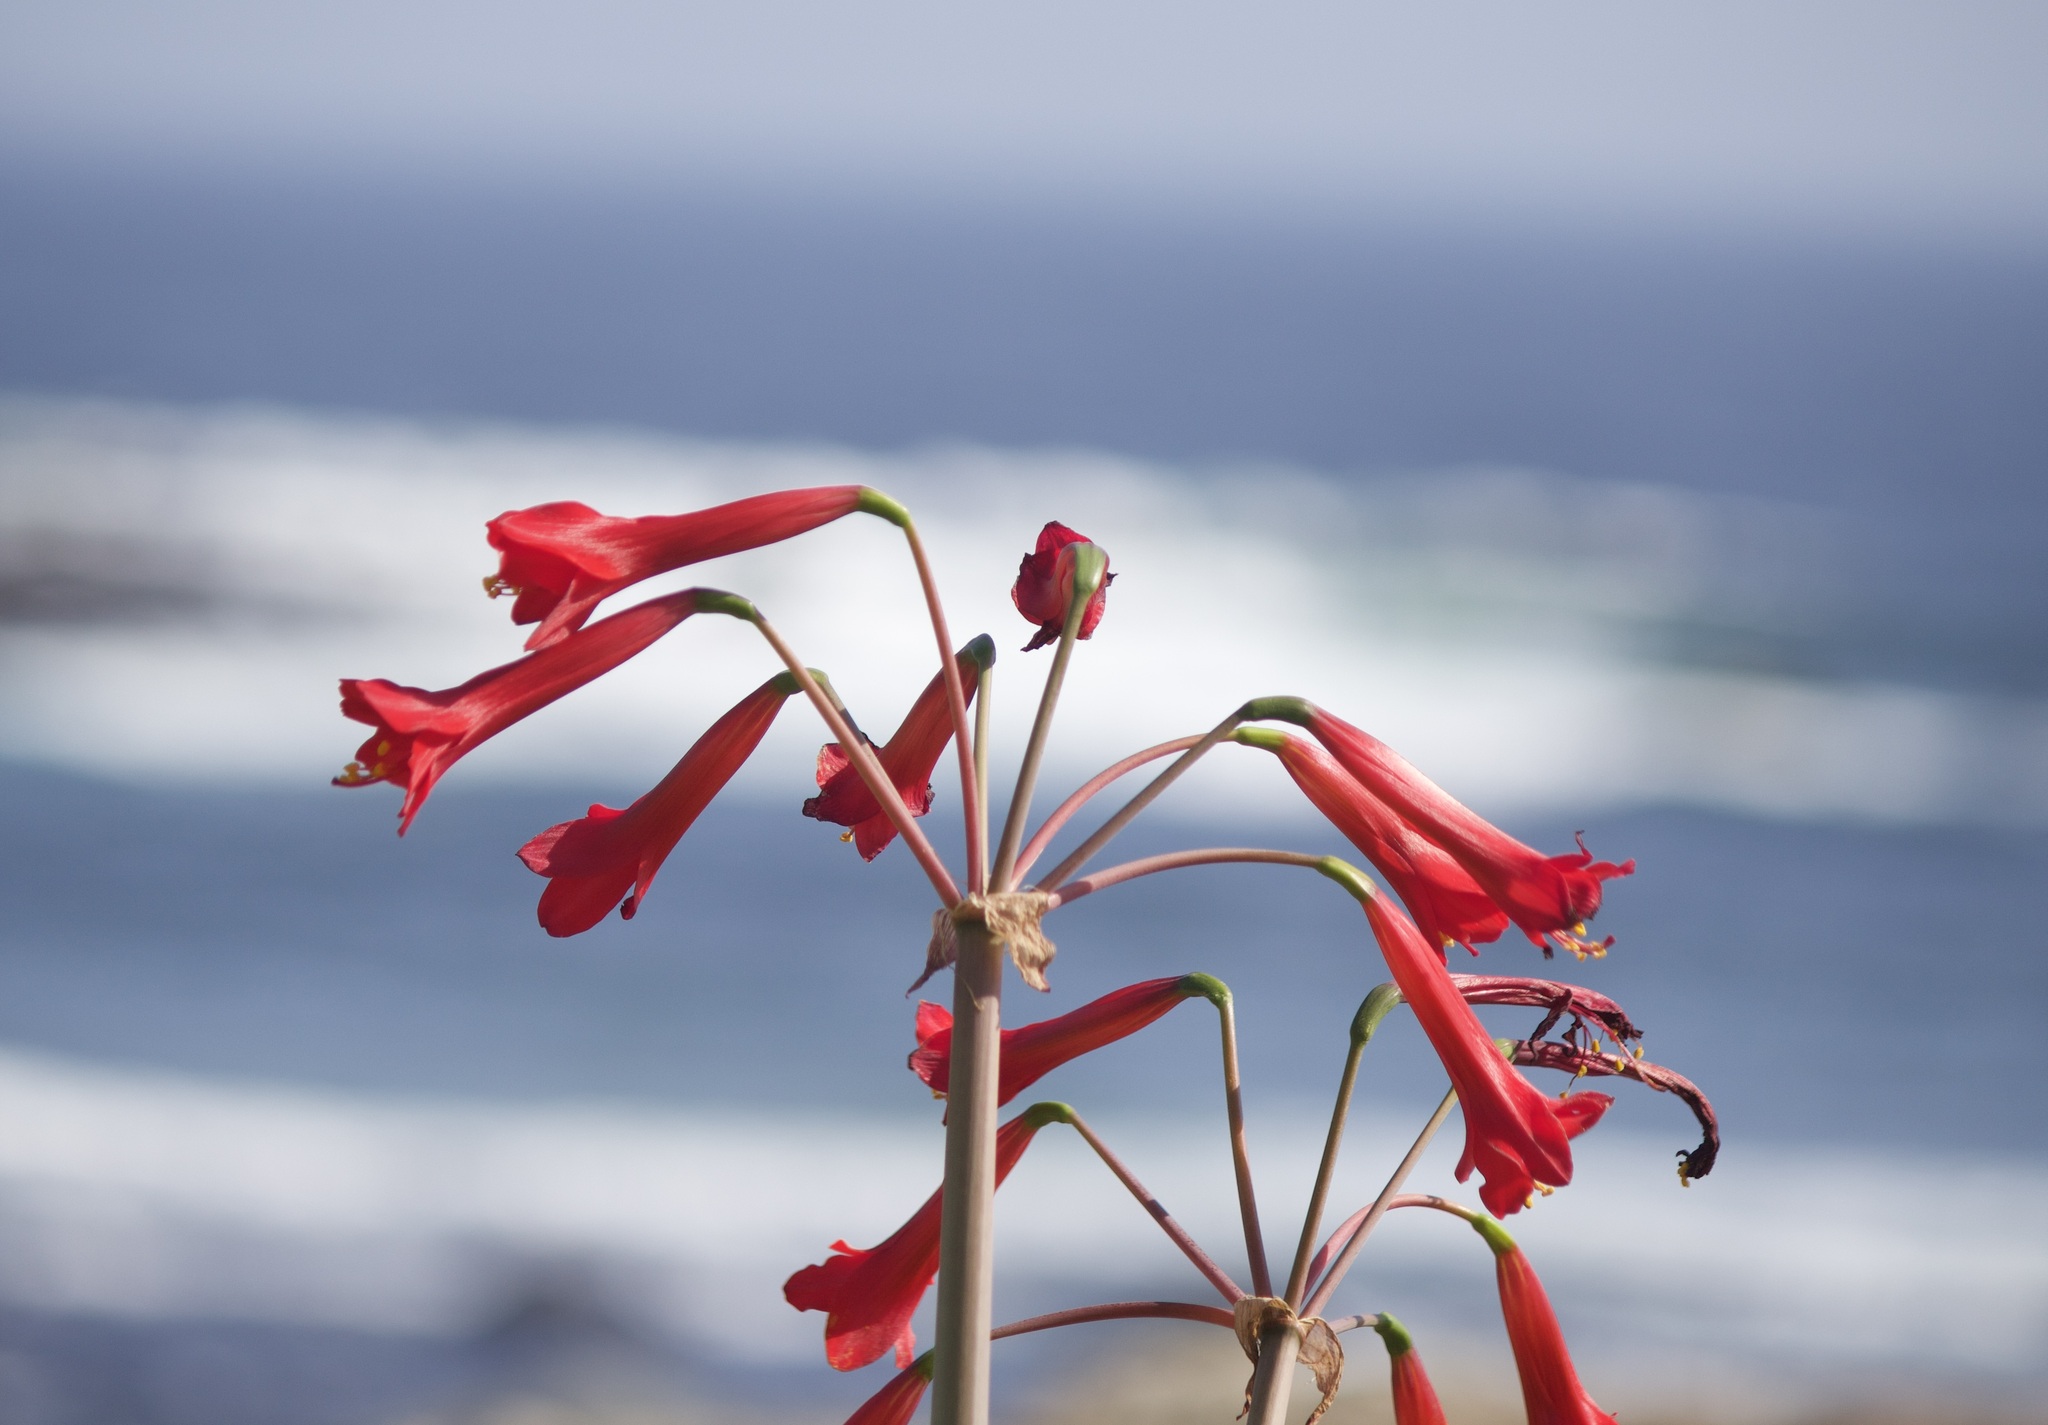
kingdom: Plantae
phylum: Tracheophyta
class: Liliopsida
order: Asparagales
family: Amaryllidaceae
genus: Phycella
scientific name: Phycella cyrtanthoides
